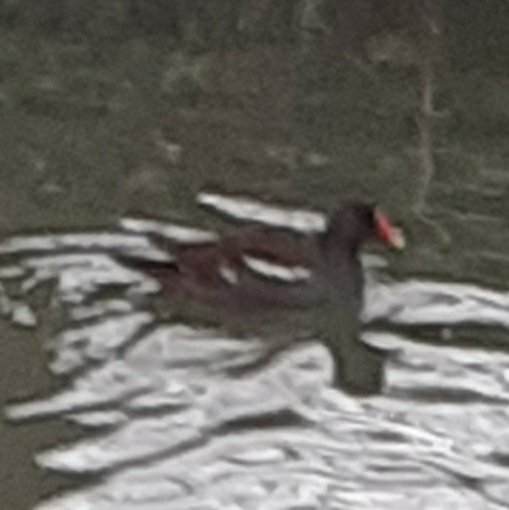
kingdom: Animalia
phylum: Chordata
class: Aves
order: Gruiformes
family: Rallidae
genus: Gallinula
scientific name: Gallinula chloropus
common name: Common moorhen
